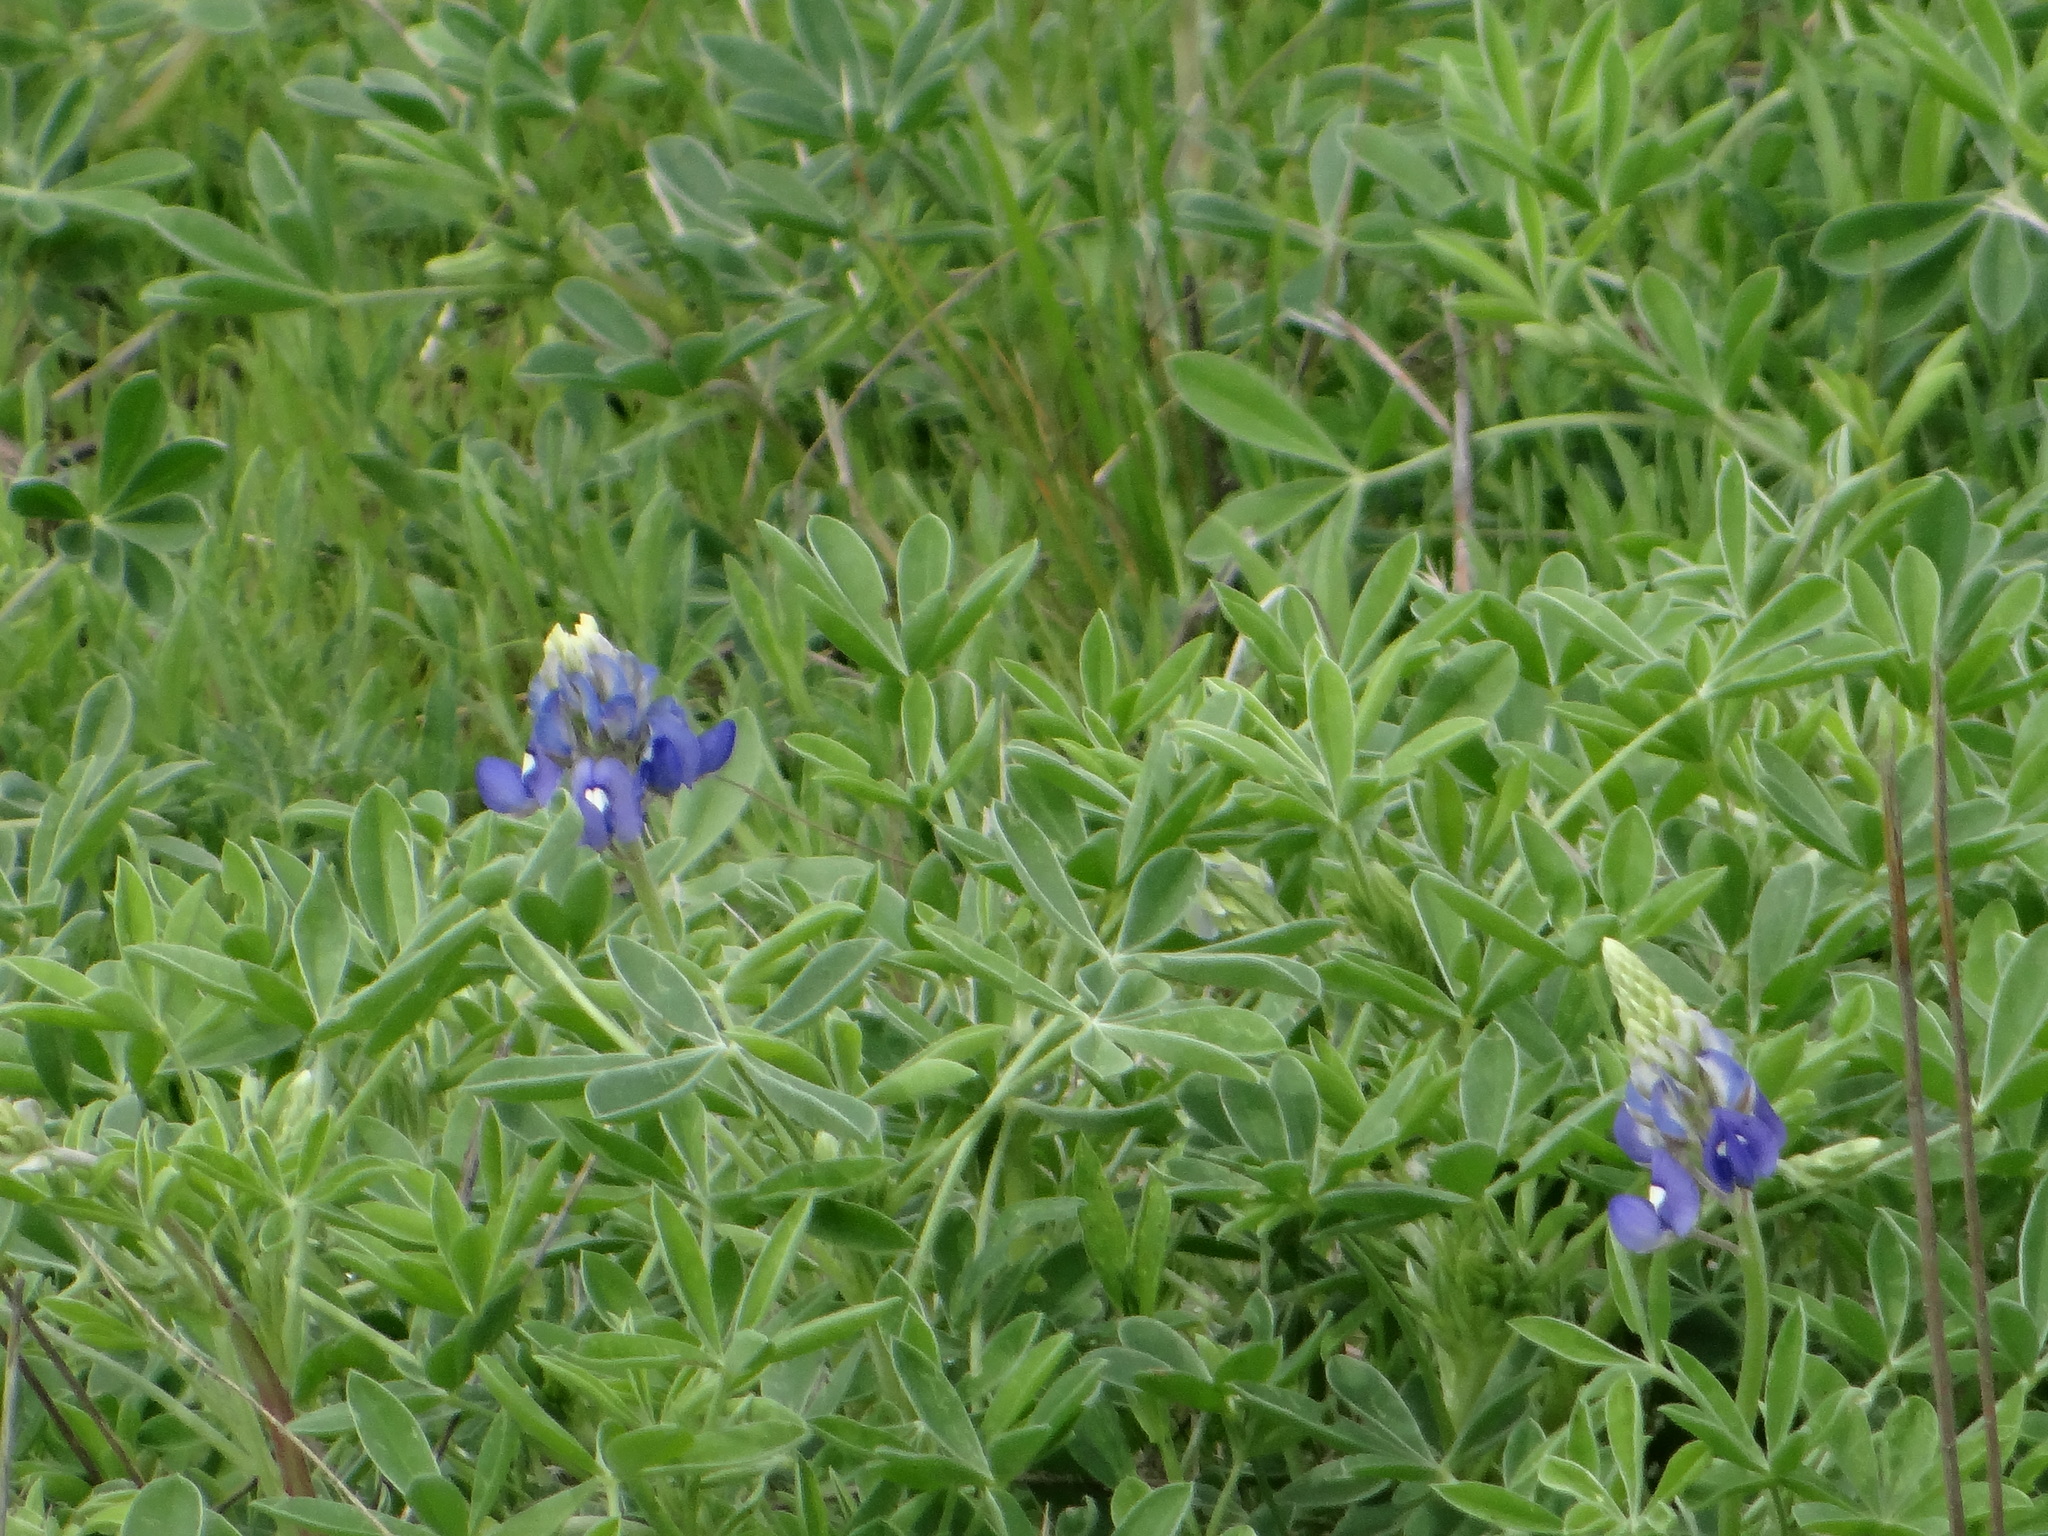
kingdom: Plantae
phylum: Tracheophyta
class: Magnoliopsida
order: Fabales
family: Fabaceae
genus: Lupinus
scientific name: Lupinus texensis
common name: Texas bluebonnet
